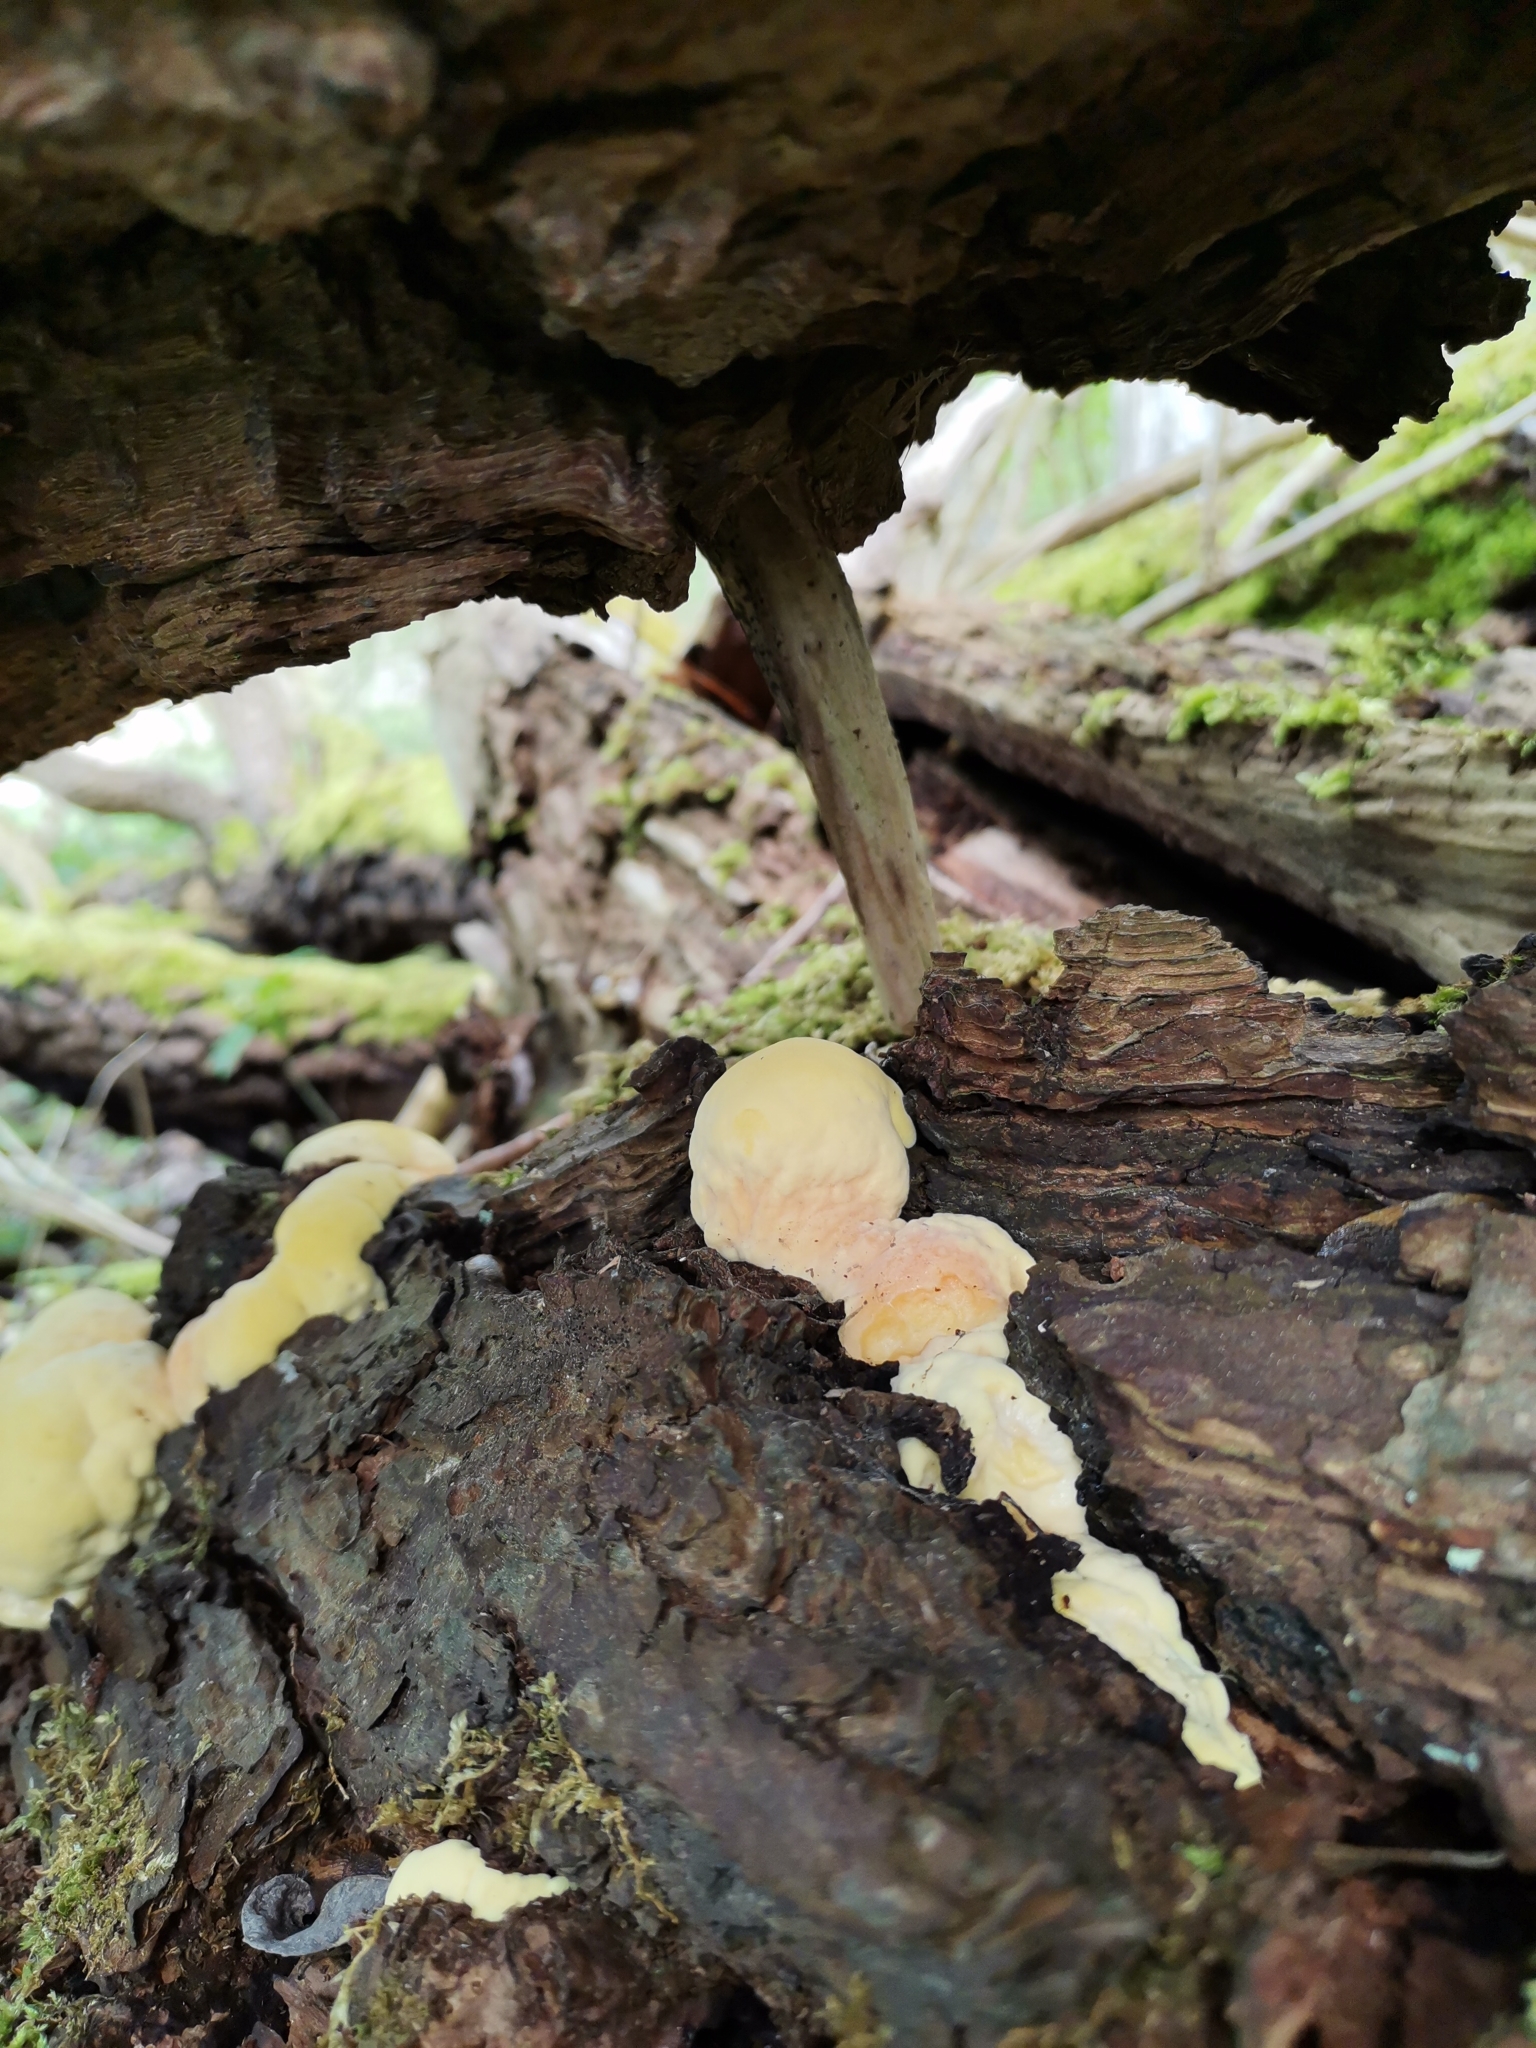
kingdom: Fungi
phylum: Basidiomycota
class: Agaricomycetes
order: Polyporales
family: Laetiporaceae
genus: Laetiporus
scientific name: Laetiporus sulphureus
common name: Chicken of the woods
